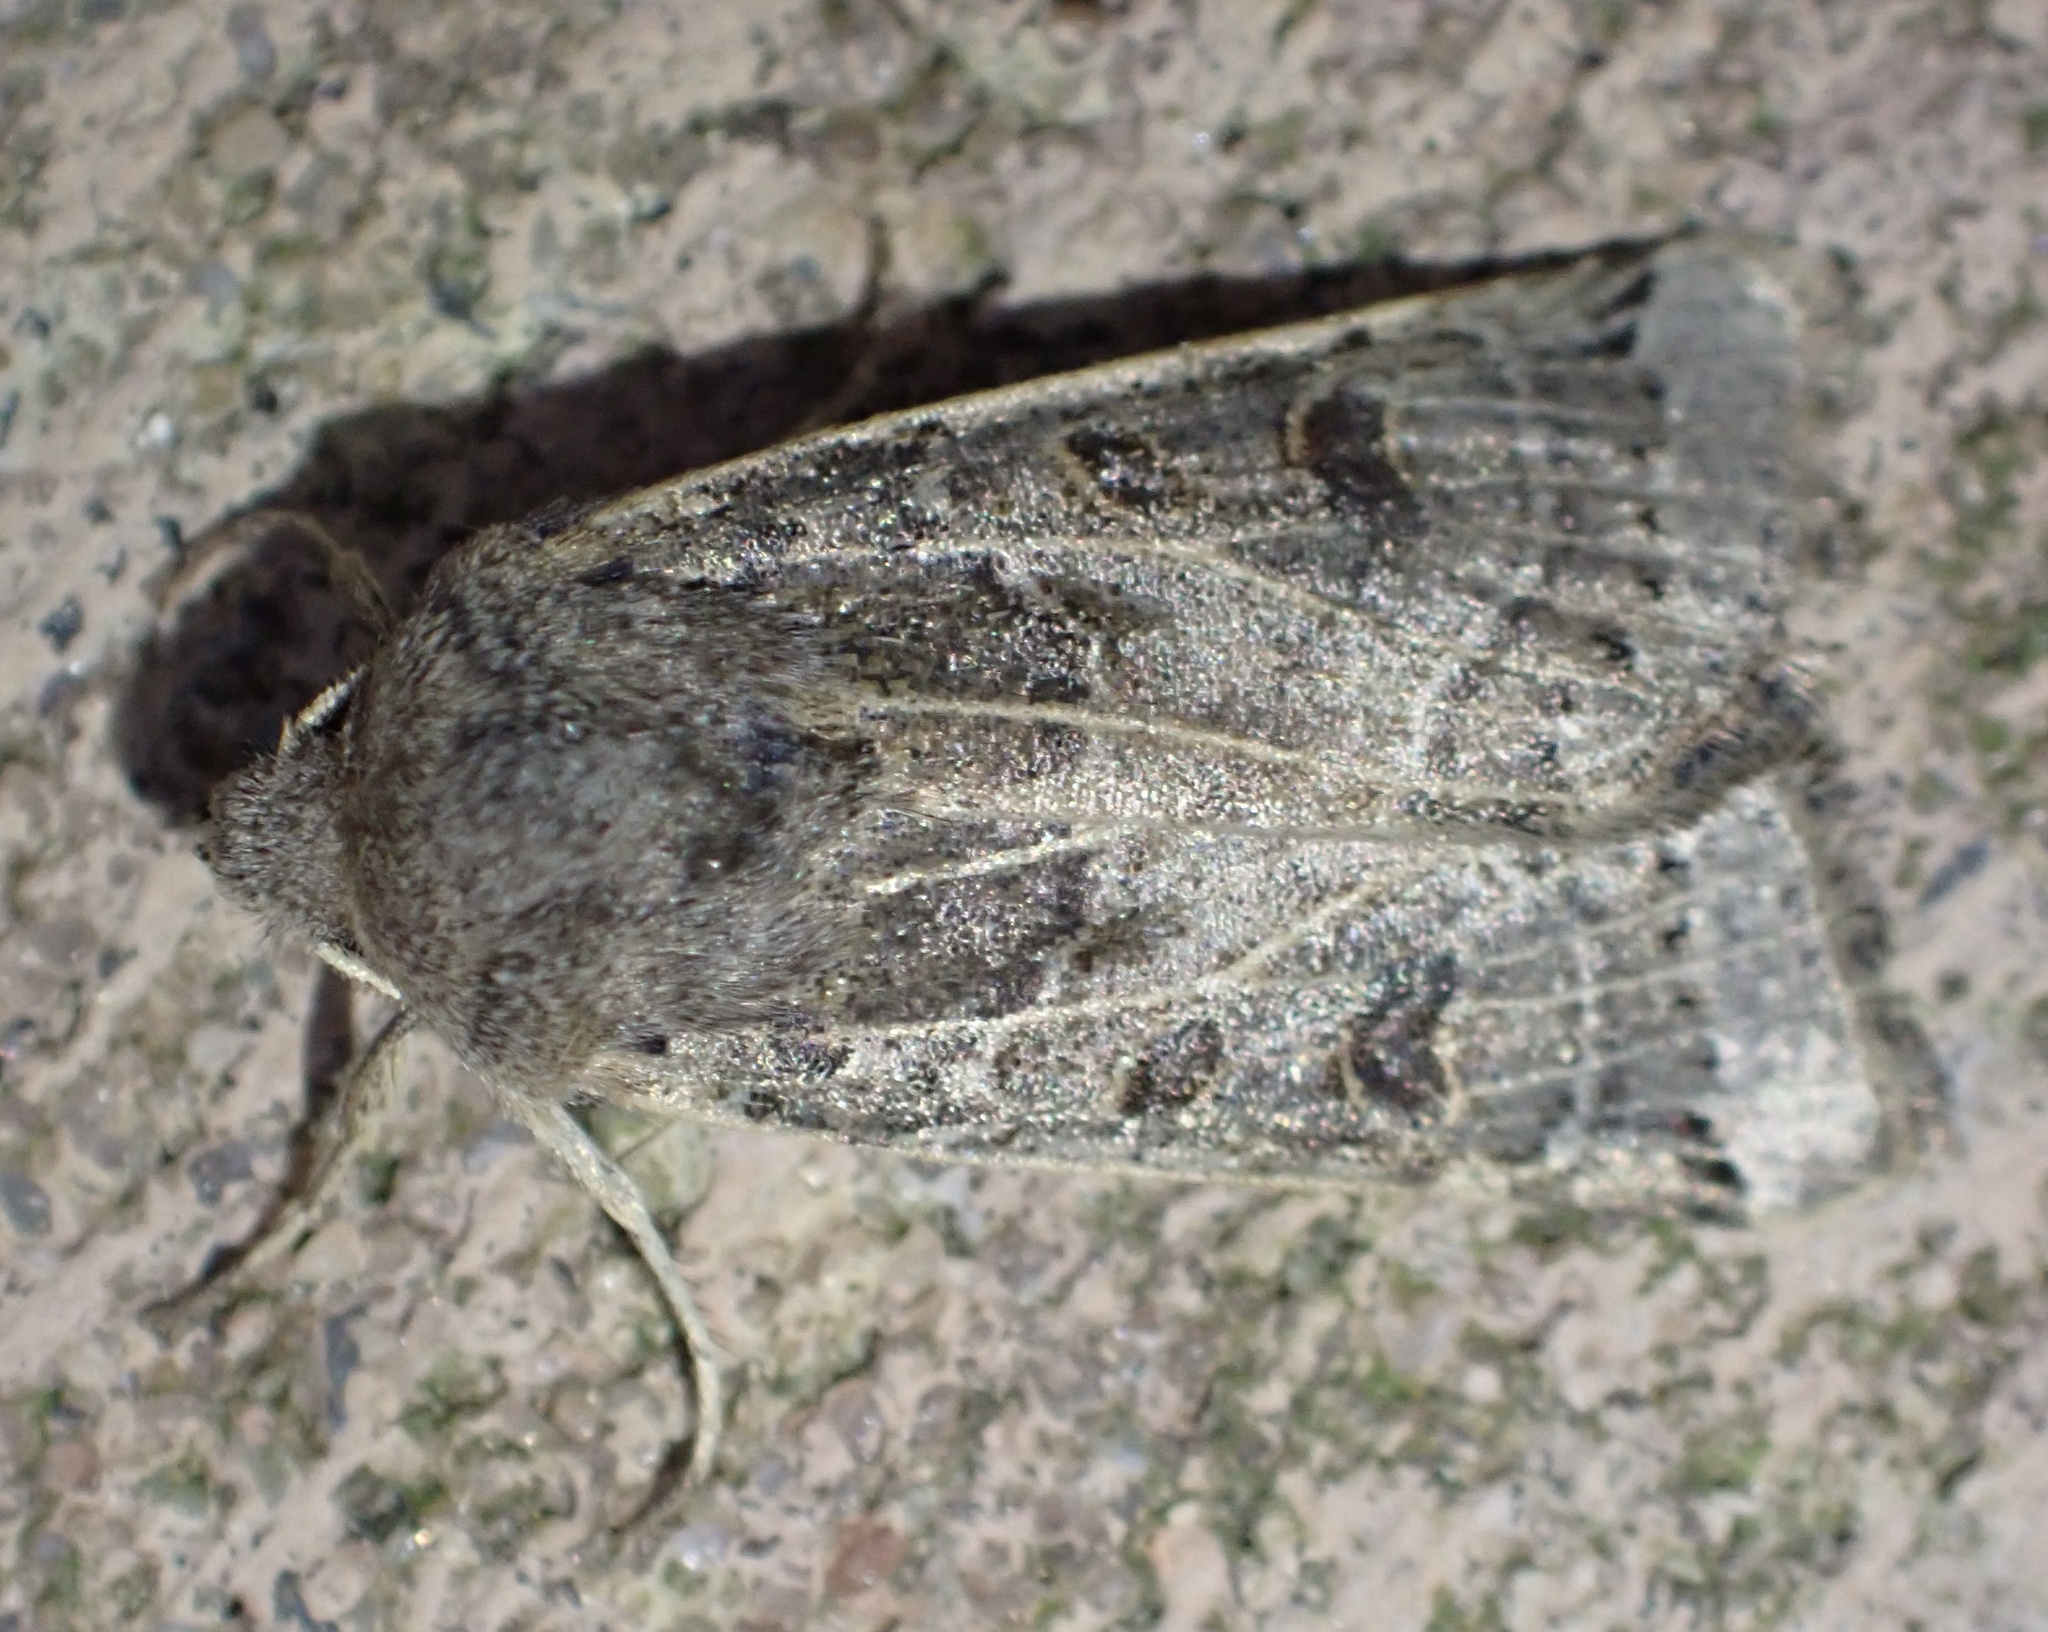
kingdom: Animalia
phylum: Arthropoda
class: Insecta
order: Lepidoptera
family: Noctuidae
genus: Agrochola
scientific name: Agrochola lunosa
